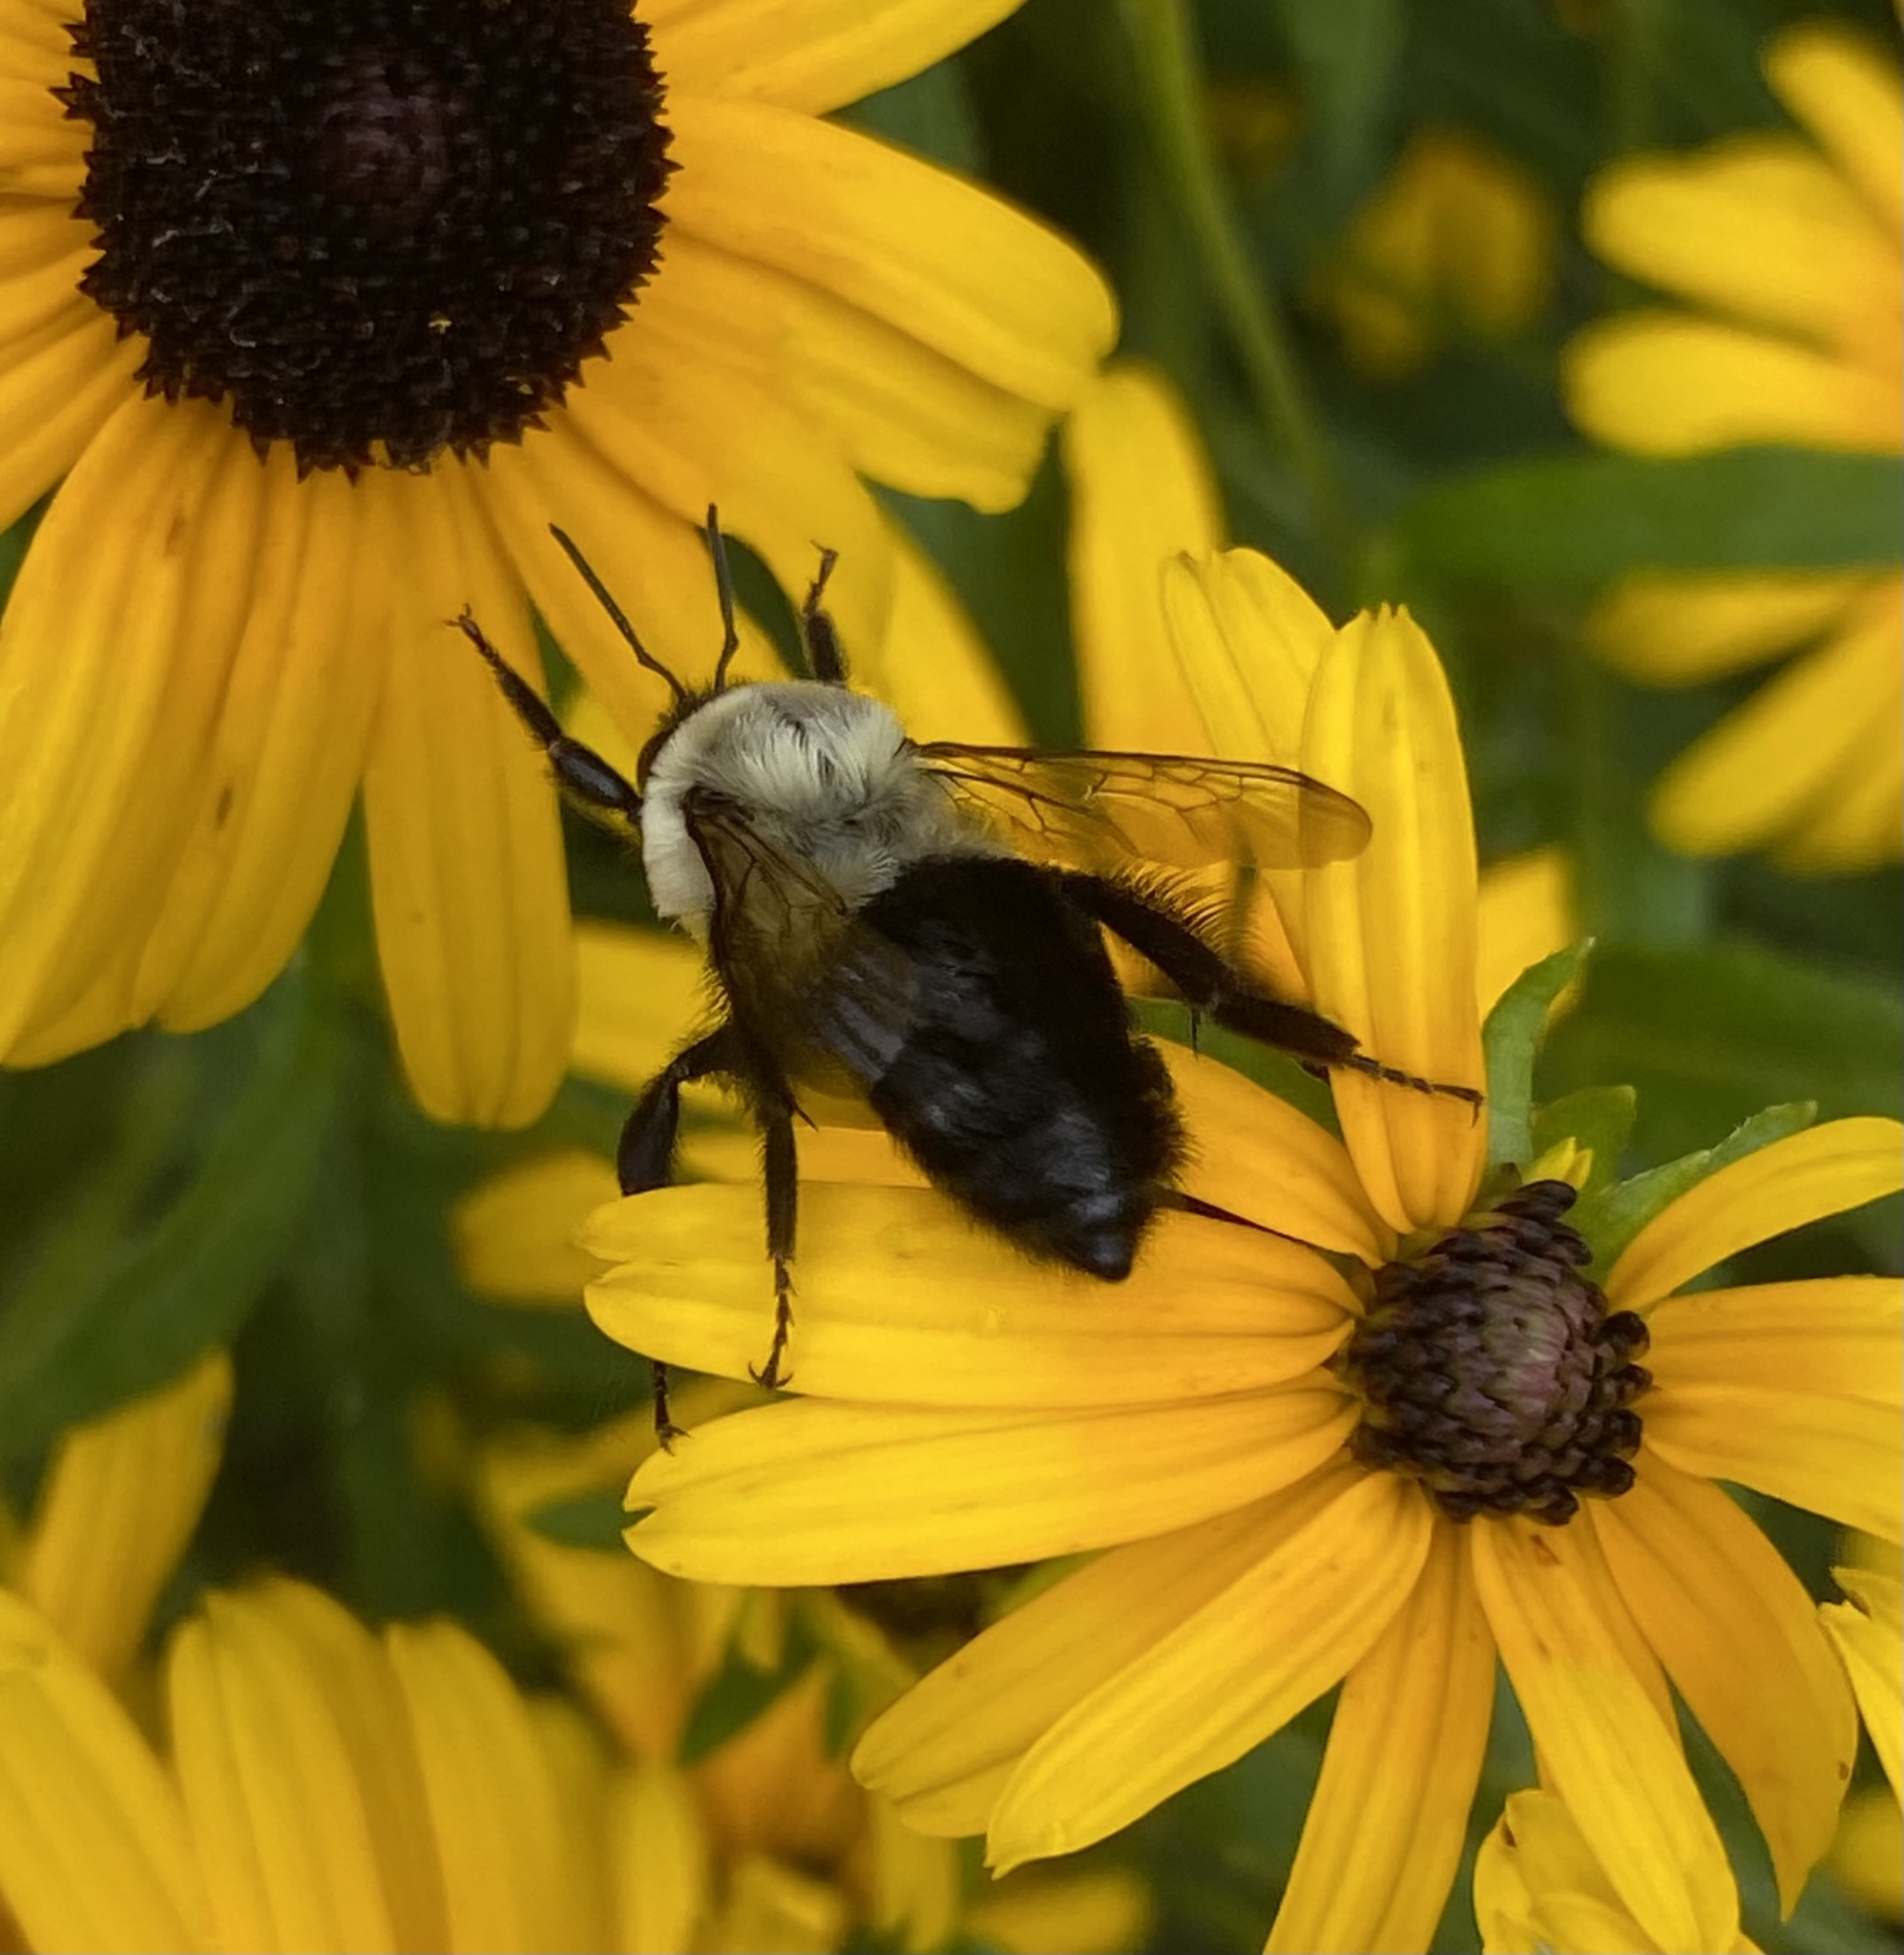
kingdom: Animalia
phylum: Arthropoda
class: Insecta
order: Hymenoptera
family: Apidae
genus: Bombus
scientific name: Bombus impatiens
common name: Common eastern bumble bee
